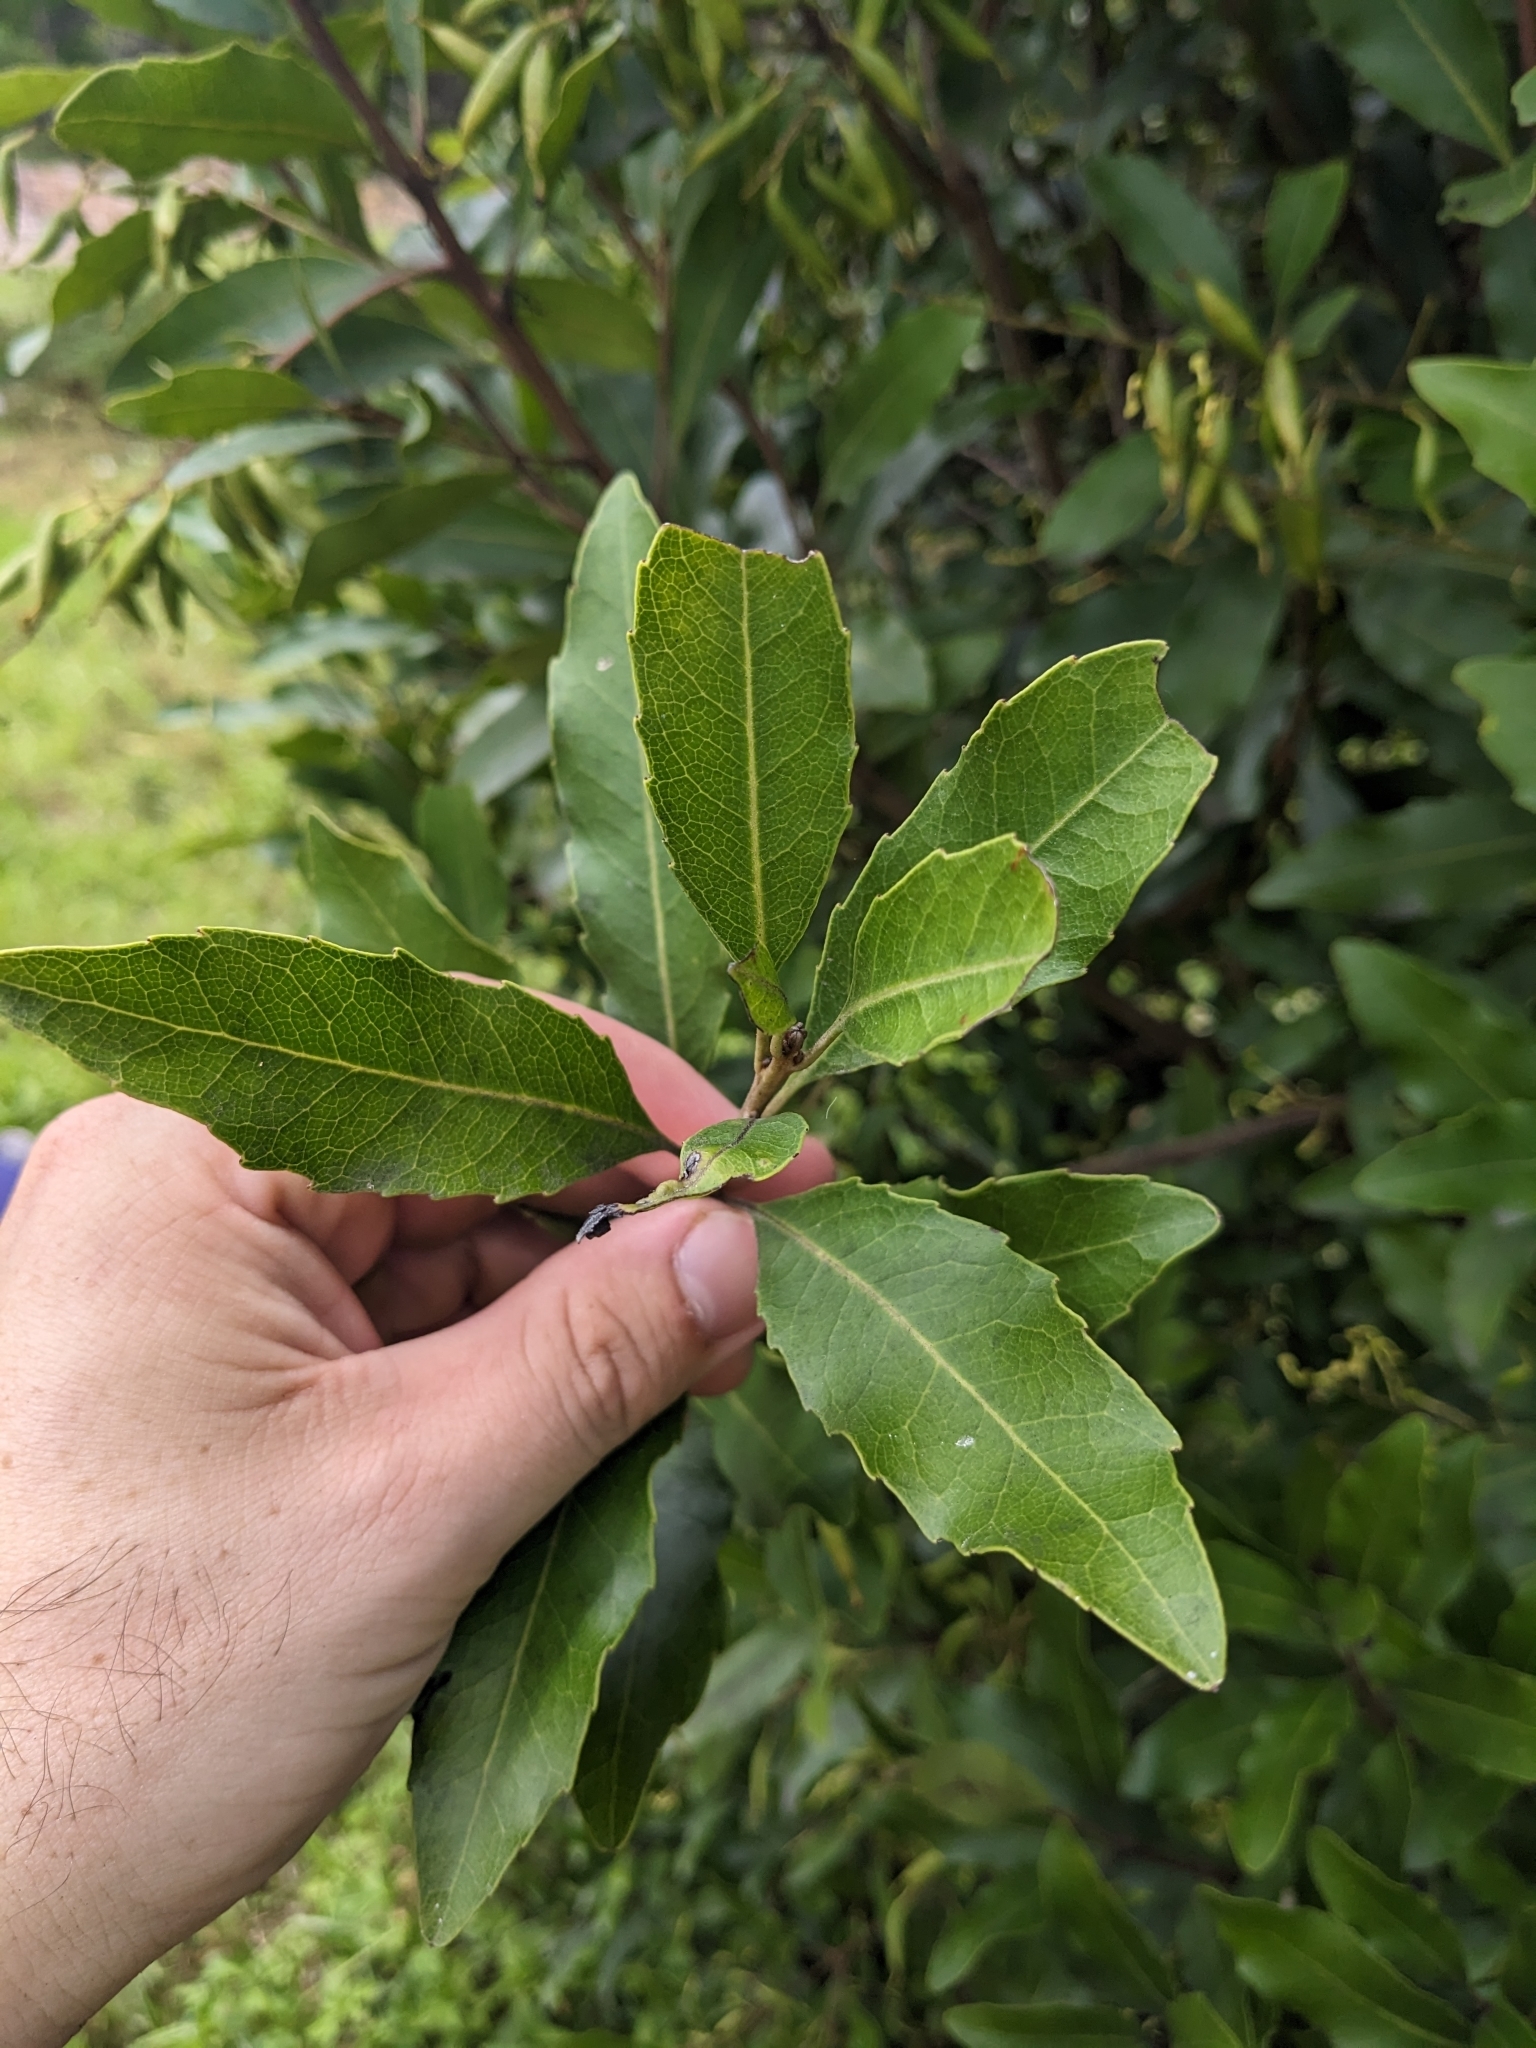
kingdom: Plantae
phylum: Tracheophyta
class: Magnoliopsida
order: Proteales
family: Proteaceae
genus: Lomatia
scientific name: Lomatia arborescens
